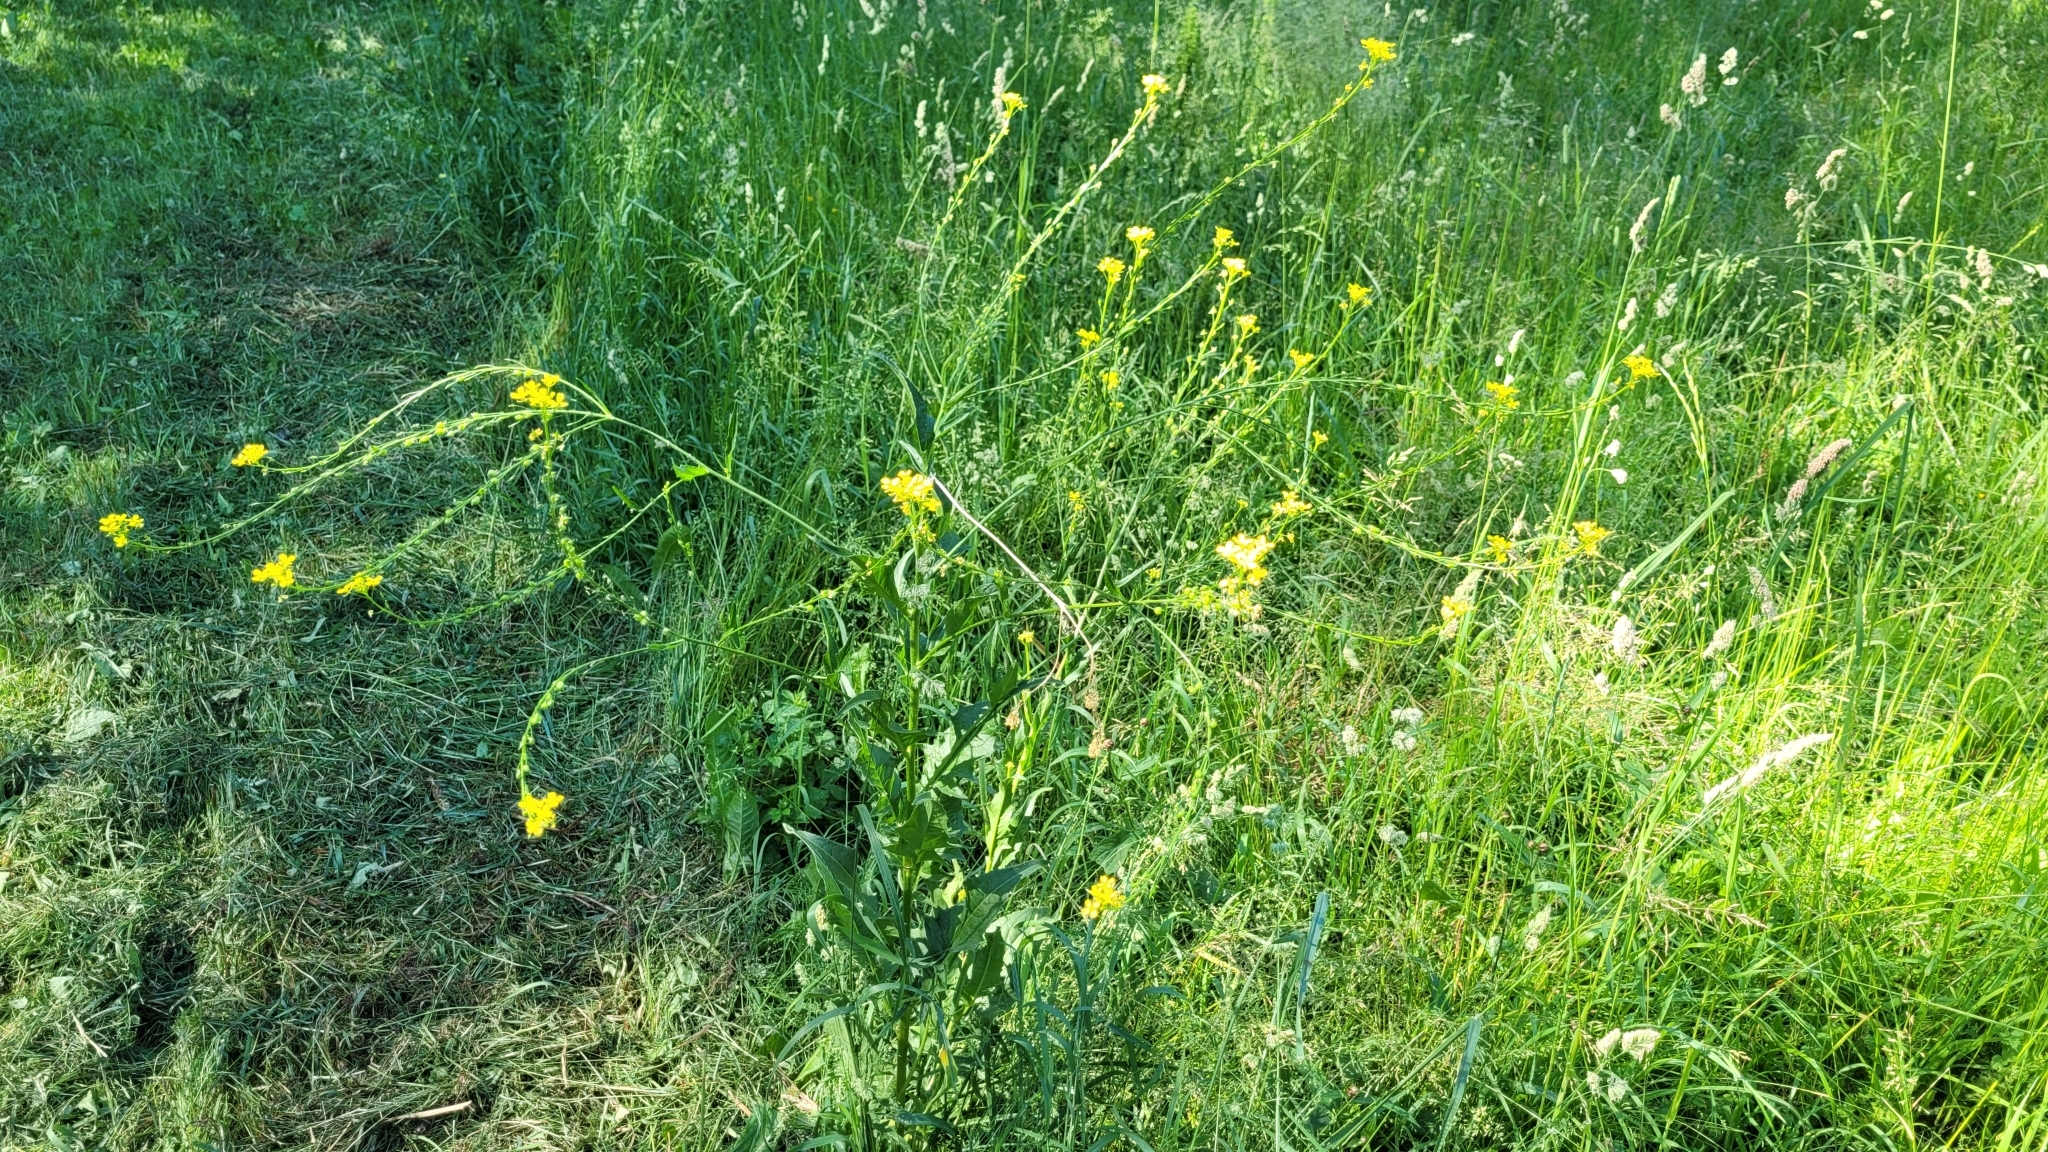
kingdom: Plantae
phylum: Tracheophyta
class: Magnoliopsida
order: Brassicales
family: Brassicaceae
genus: Bunias
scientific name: Bunias orientalis
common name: Warty-cabbage
